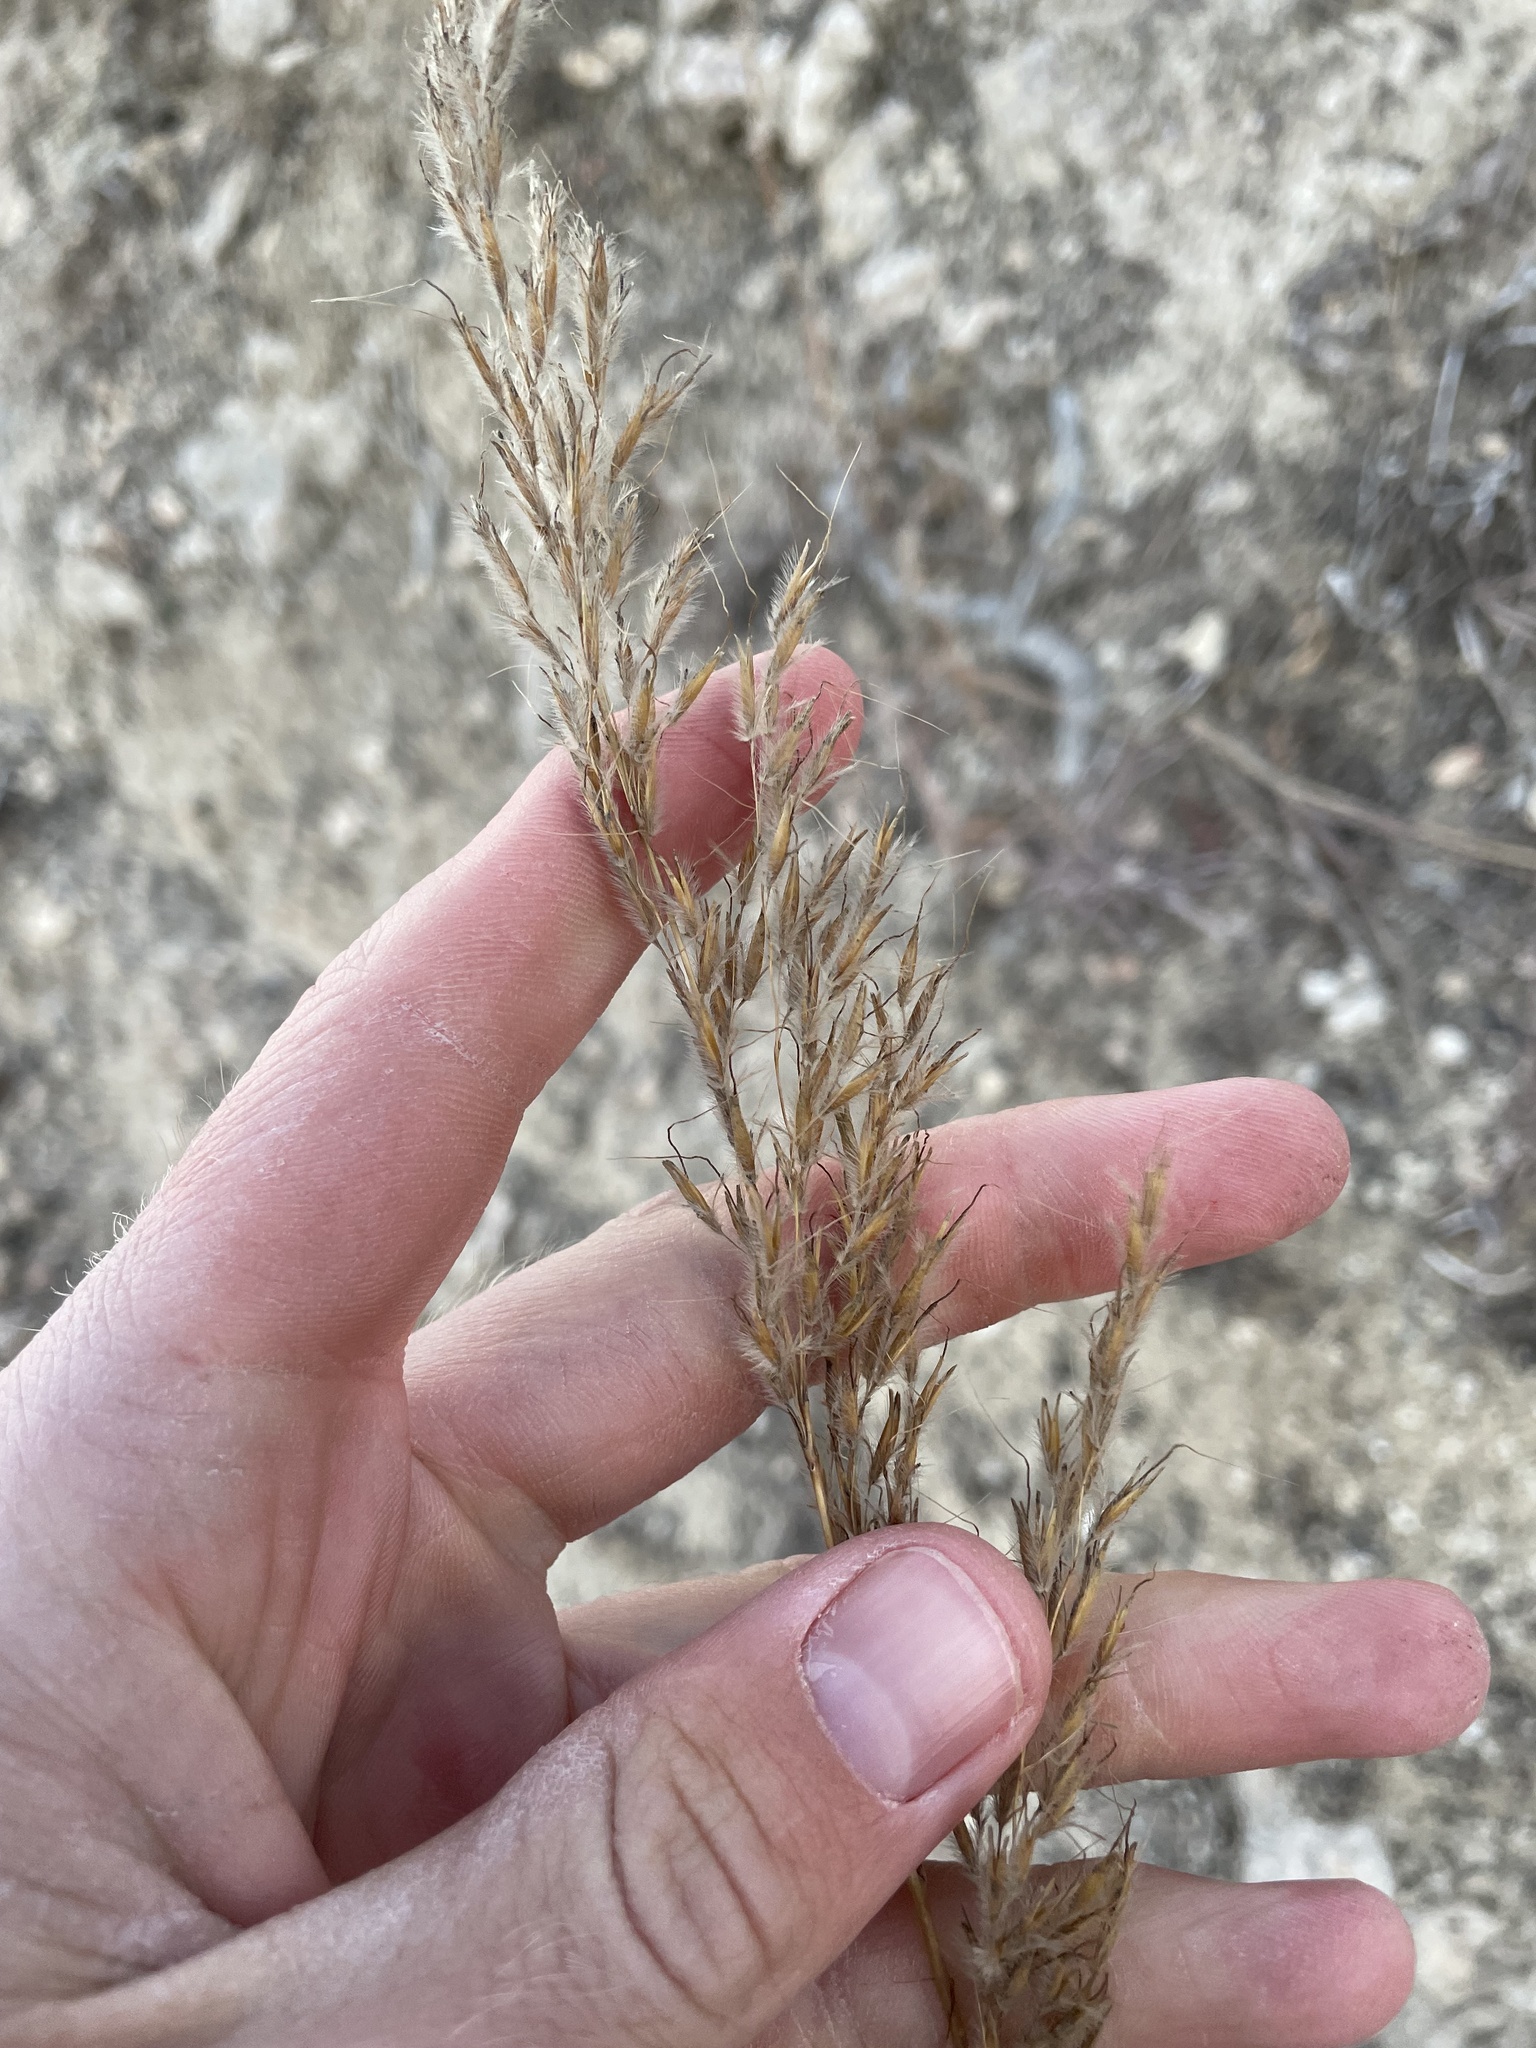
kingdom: Plantae
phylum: Tracheophyta
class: Liliopsida
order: Poales
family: Poaceae
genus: Sorghastrum
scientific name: Sorghastrum nutans
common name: Indian grass
